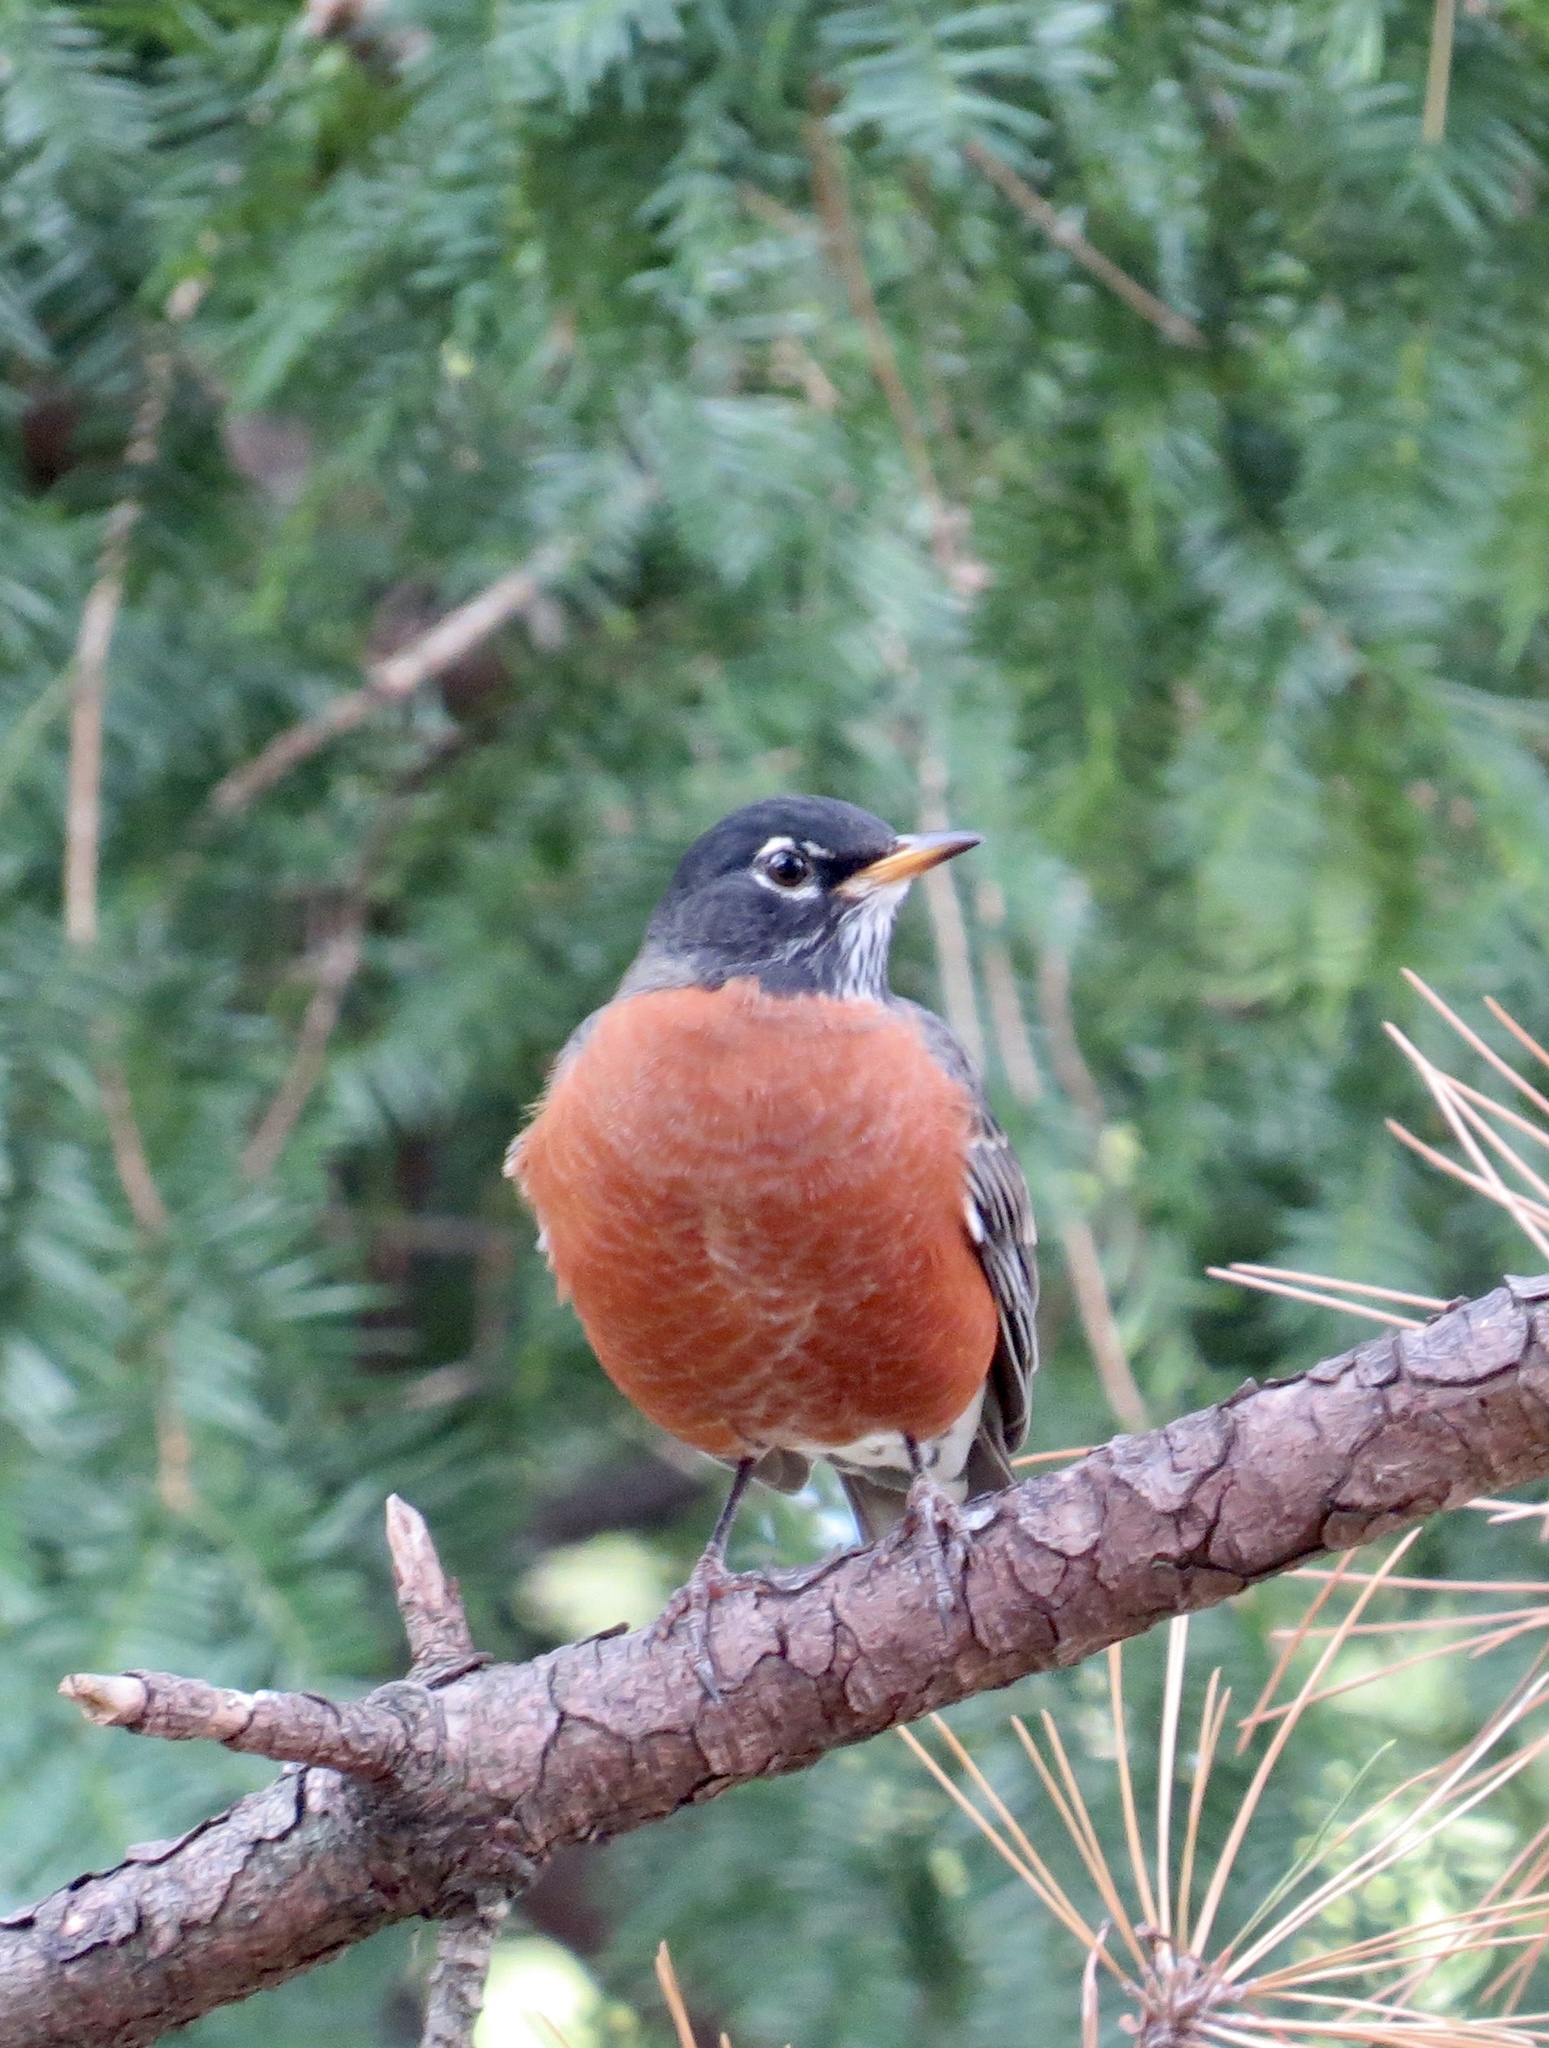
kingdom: Animalia
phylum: Chordata
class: Aves
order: Passeriformes
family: Turdidae
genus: Turdus
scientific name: Turdus migratorius
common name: American robin
